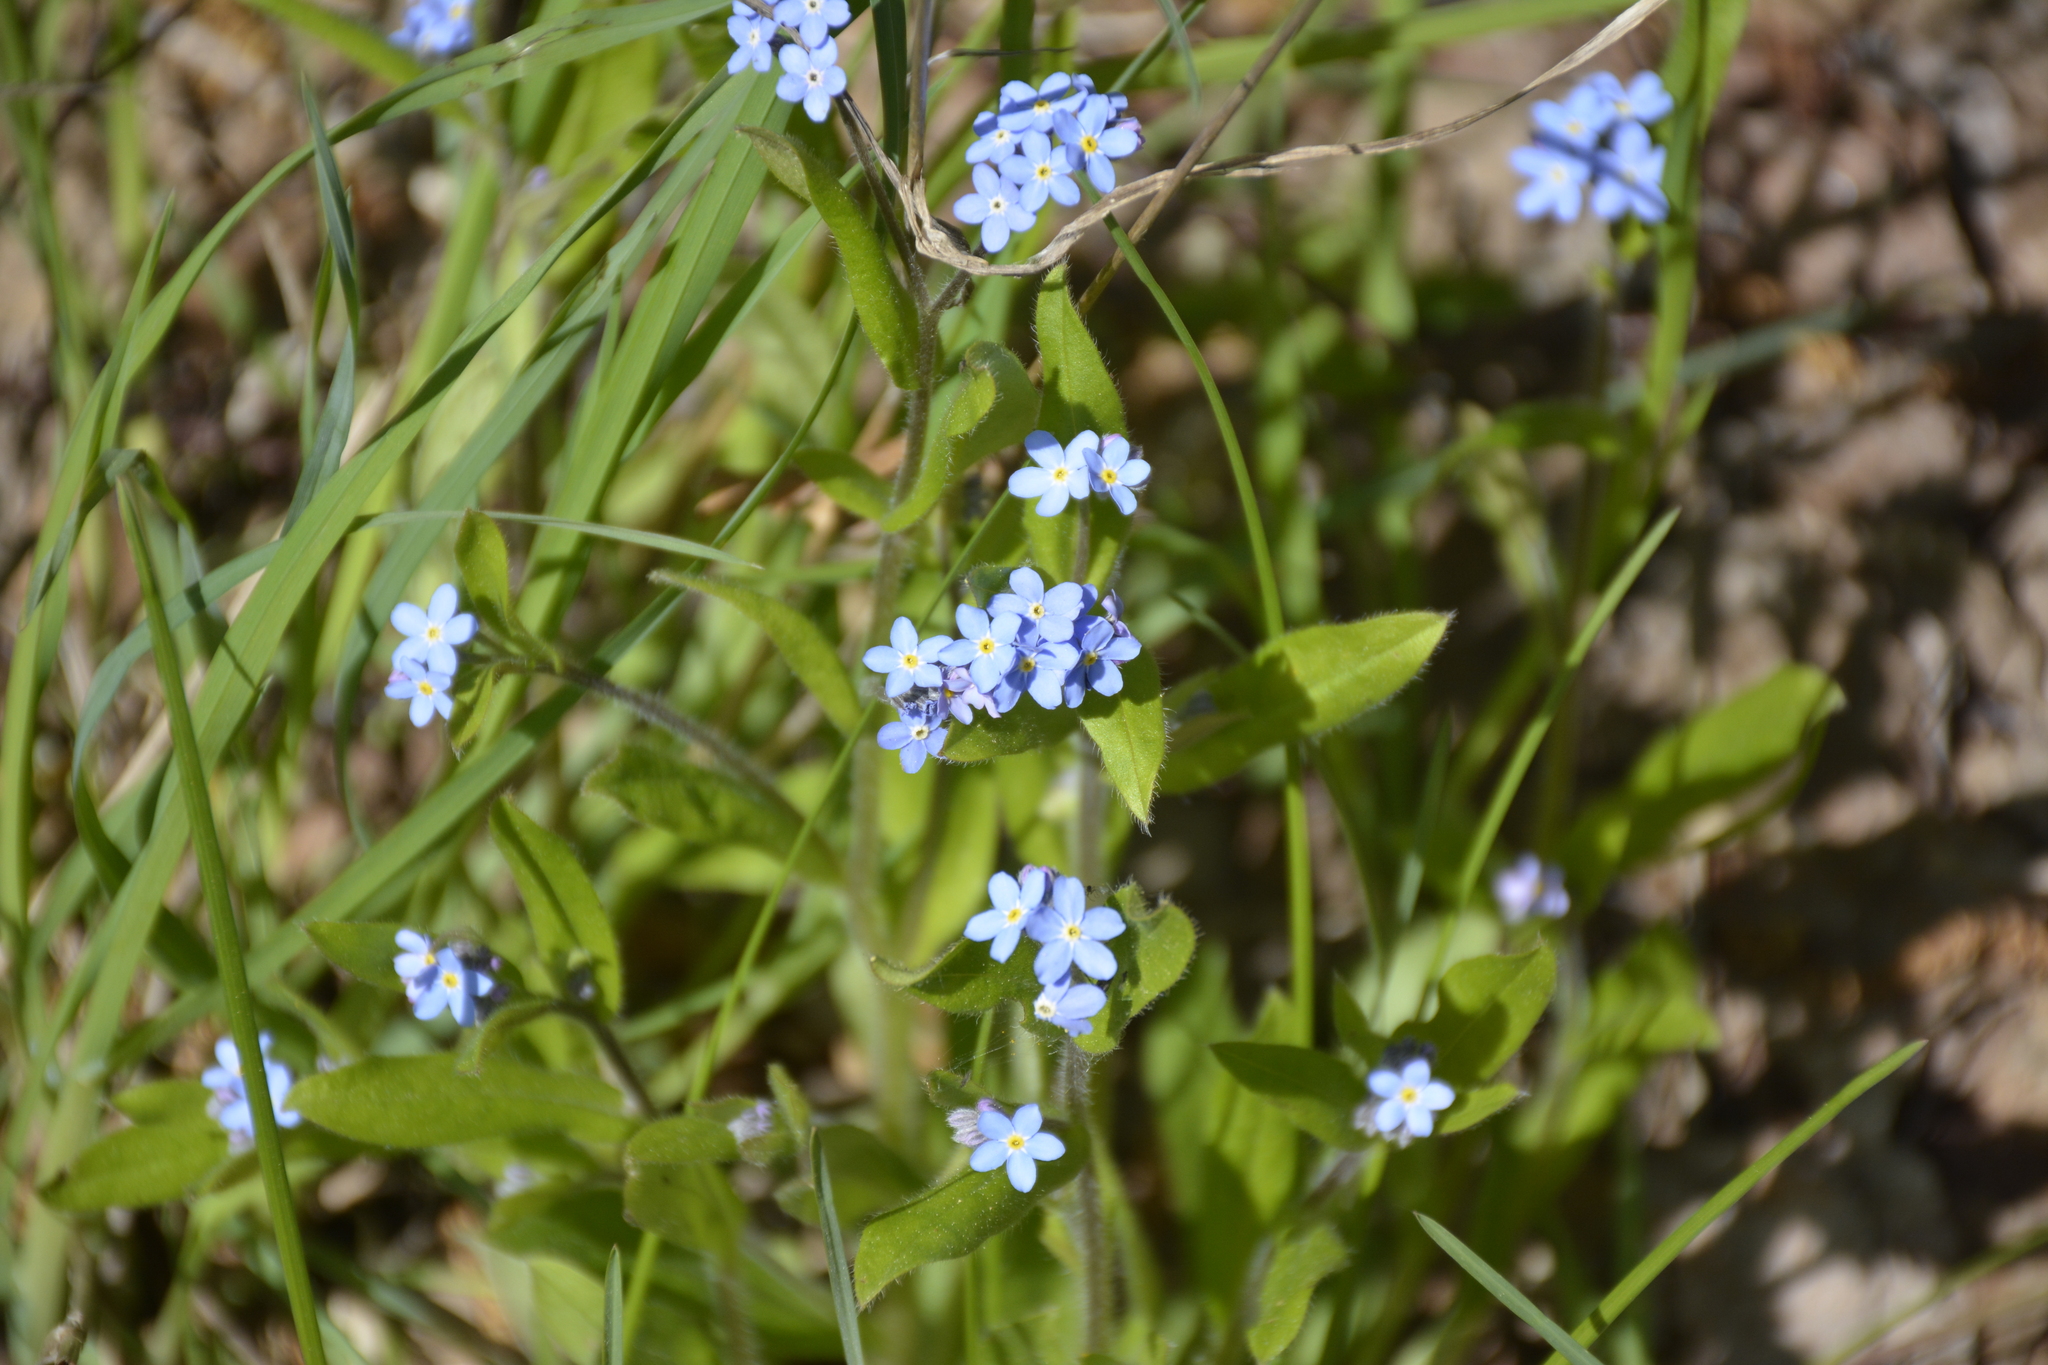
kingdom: Plantae
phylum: Tracheophyta
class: Magnoliopsida
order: Boraginales
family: Boraginaceae
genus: Myosotis
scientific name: Myosotis sylvatica
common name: Wood forget-me-not
